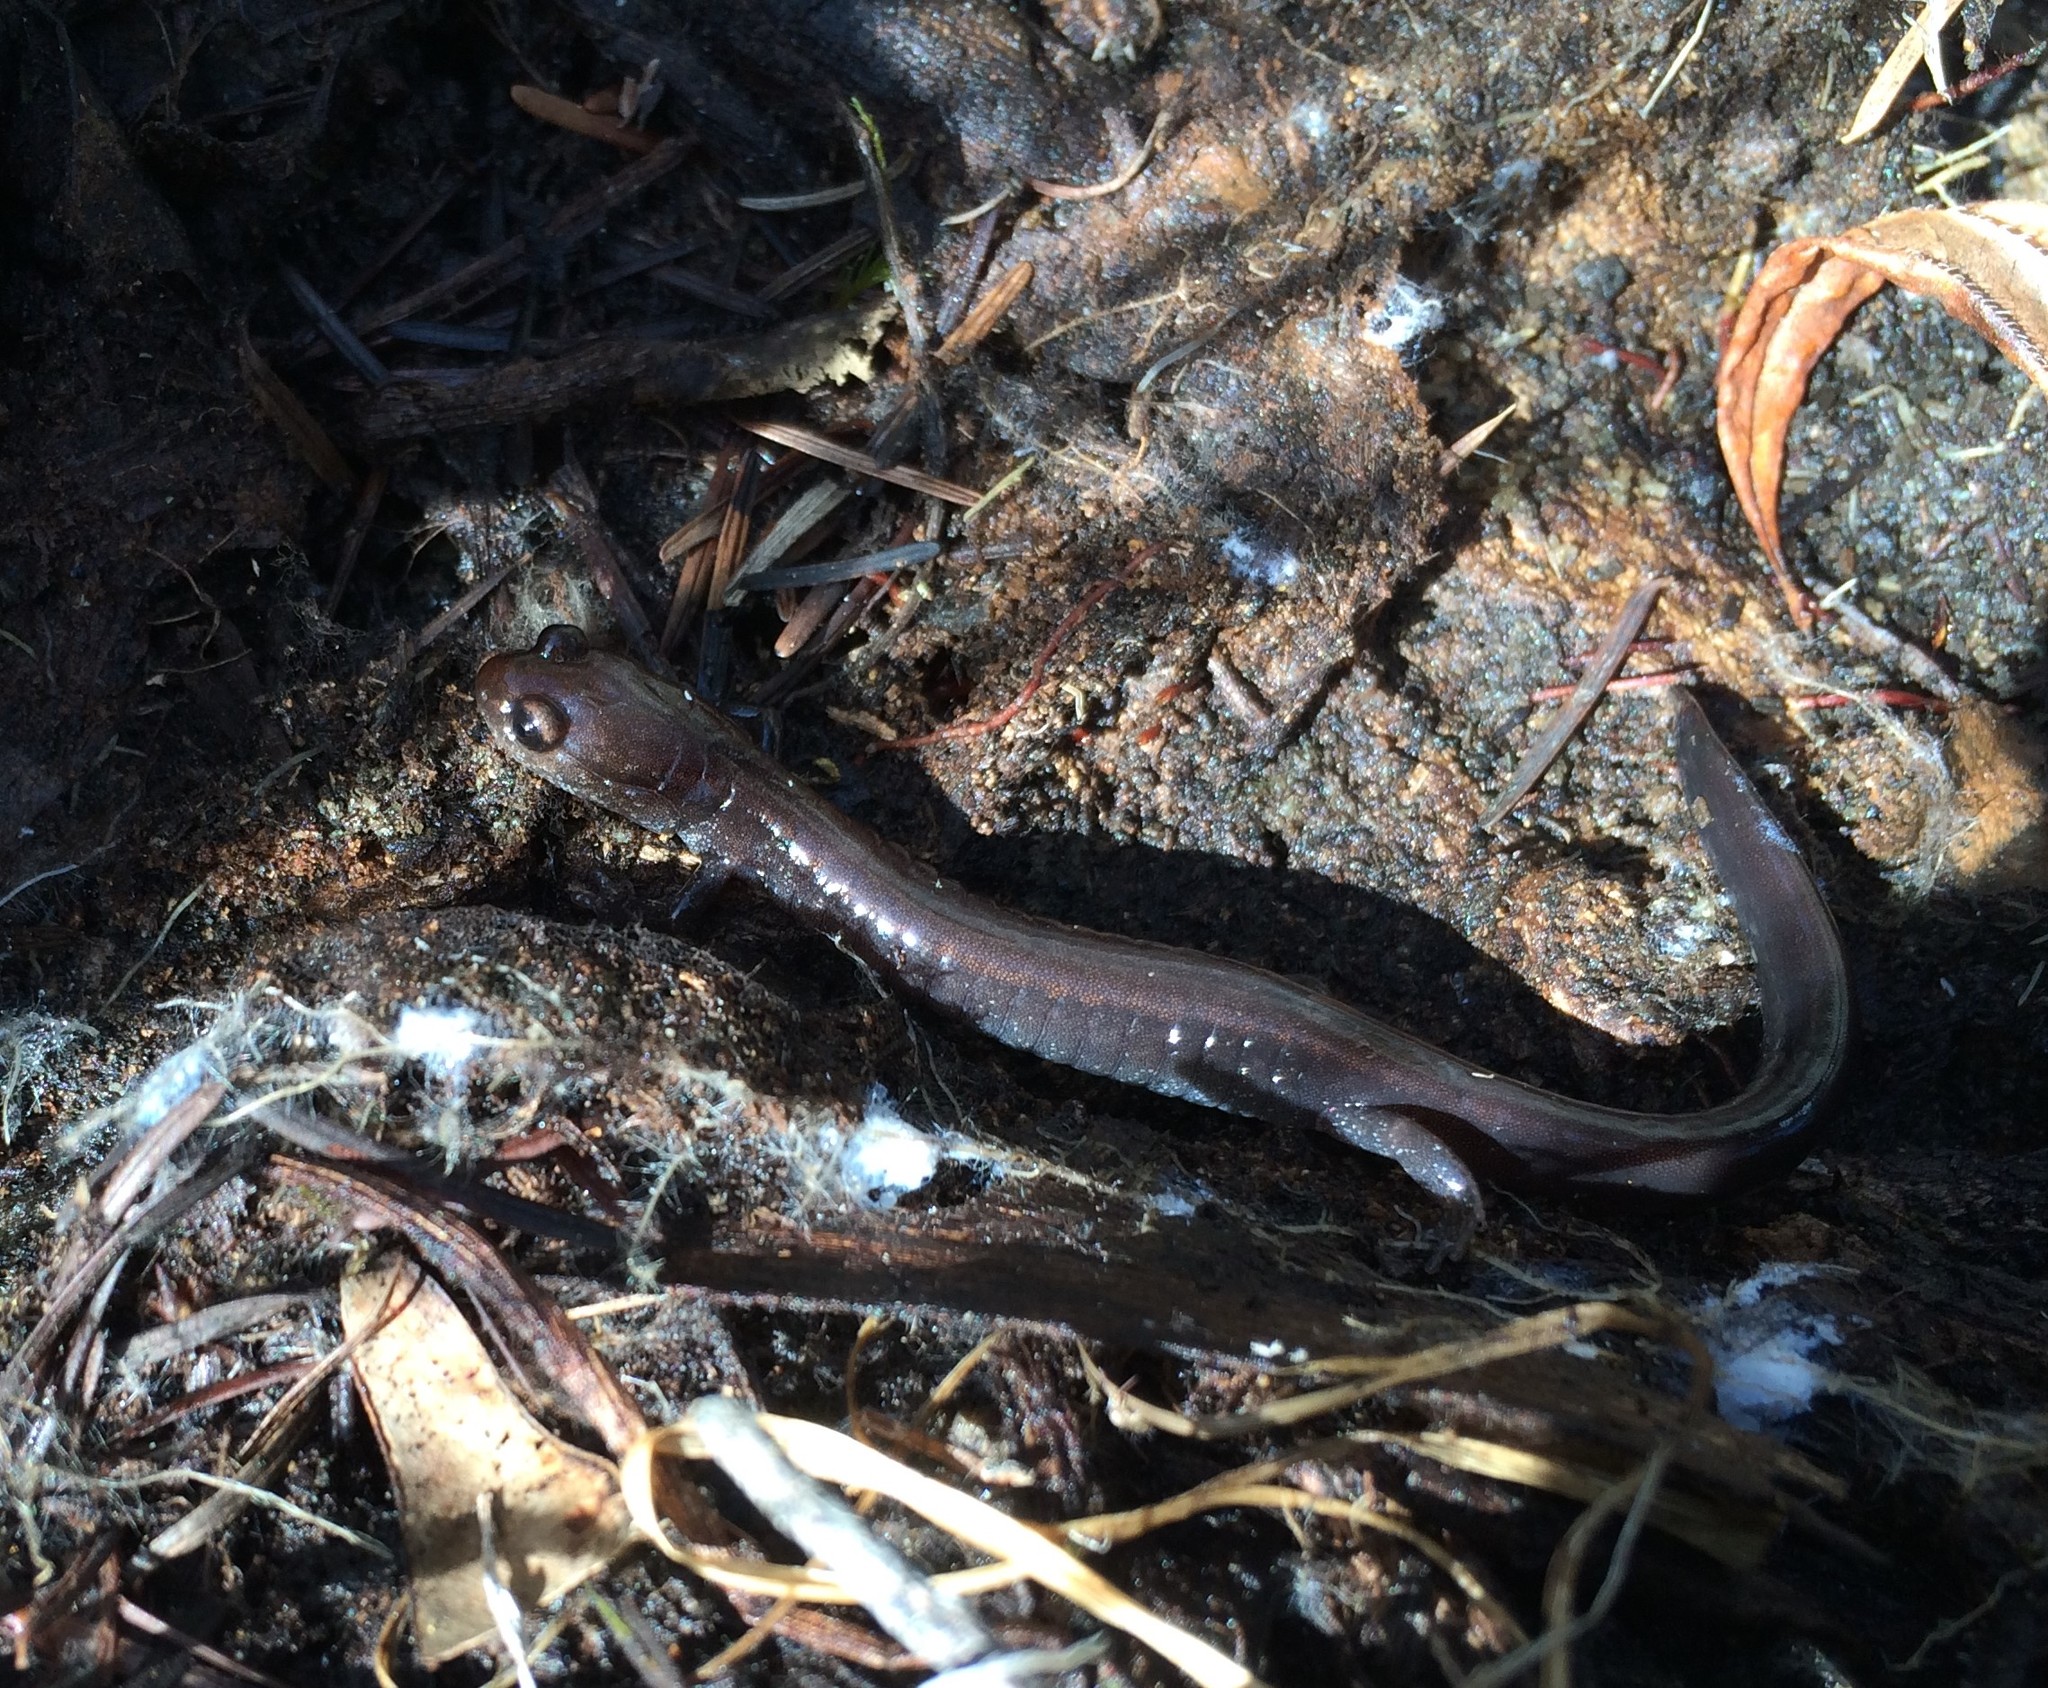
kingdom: Animalia
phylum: Chordata
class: Amphibia
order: Caudata
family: Plethodontidae
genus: Plethodon
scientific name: Plethodon elongatus
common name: Del norte salamander
